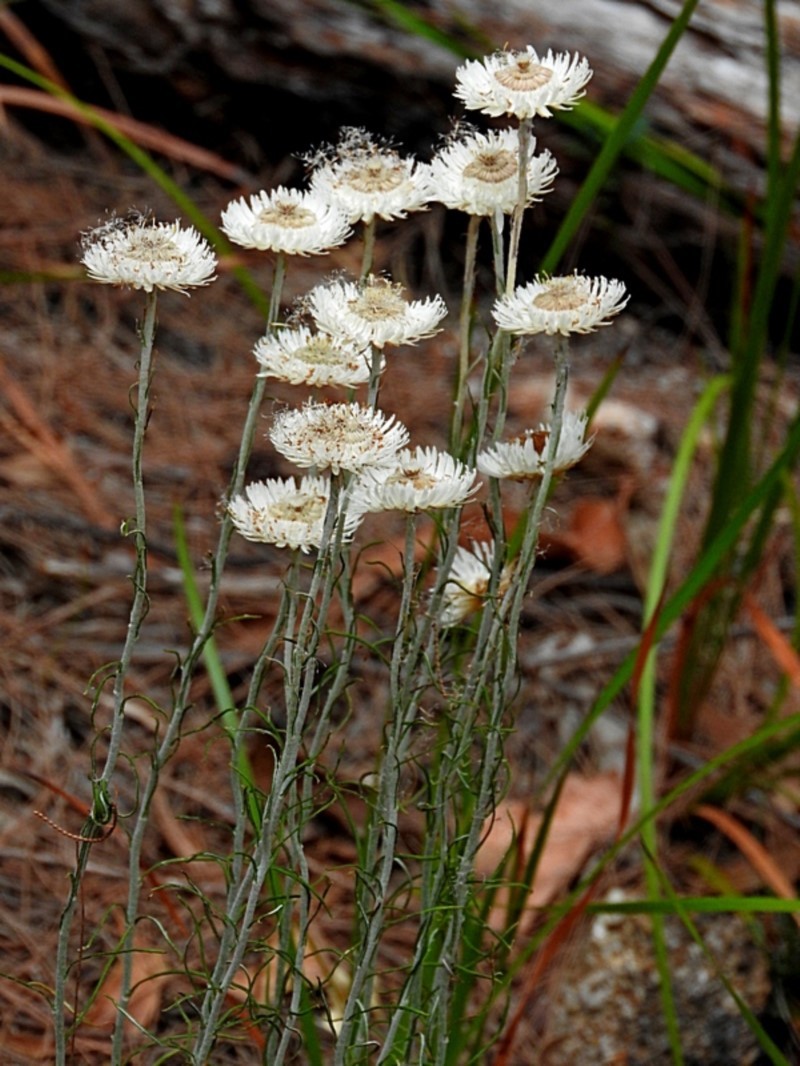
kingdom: Plantae
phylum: Tracheophyta
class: Magnoliopsida
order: Asterales
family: Asteraceae
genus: Chrysocephalum
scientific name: Chrysocephalum baxteri
